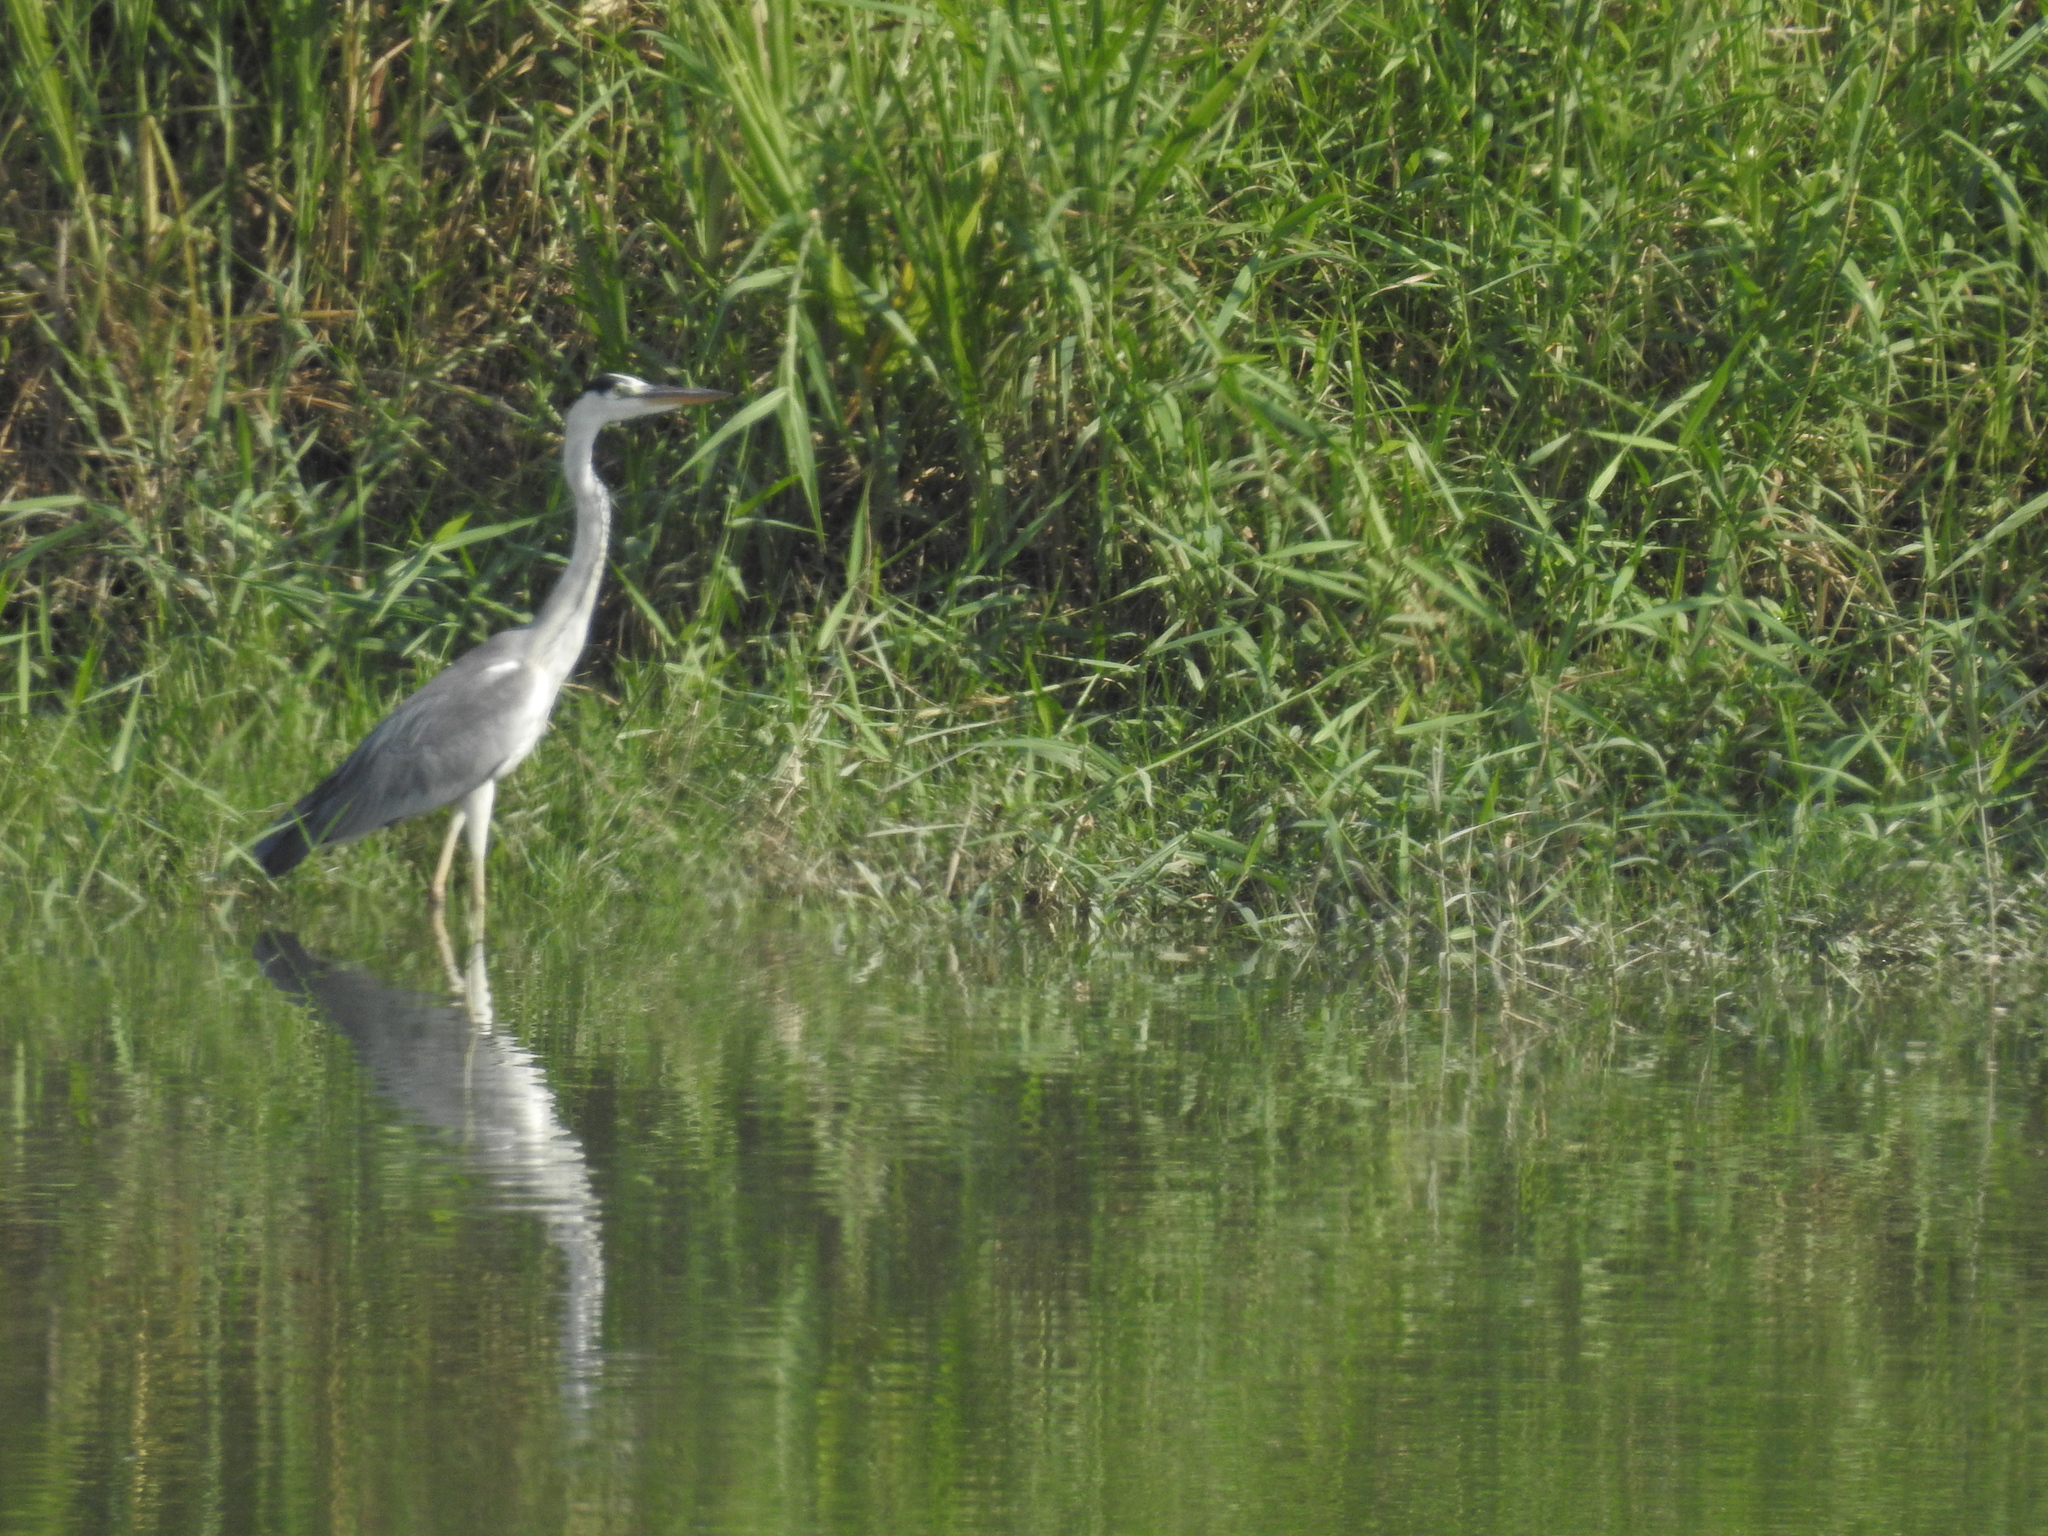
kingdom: Animalia
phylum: Chordata
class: Aves
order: Pelecaniformes
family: Ardeidae
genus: Ardea
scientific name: Ardea cinerea
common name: Grey heron
